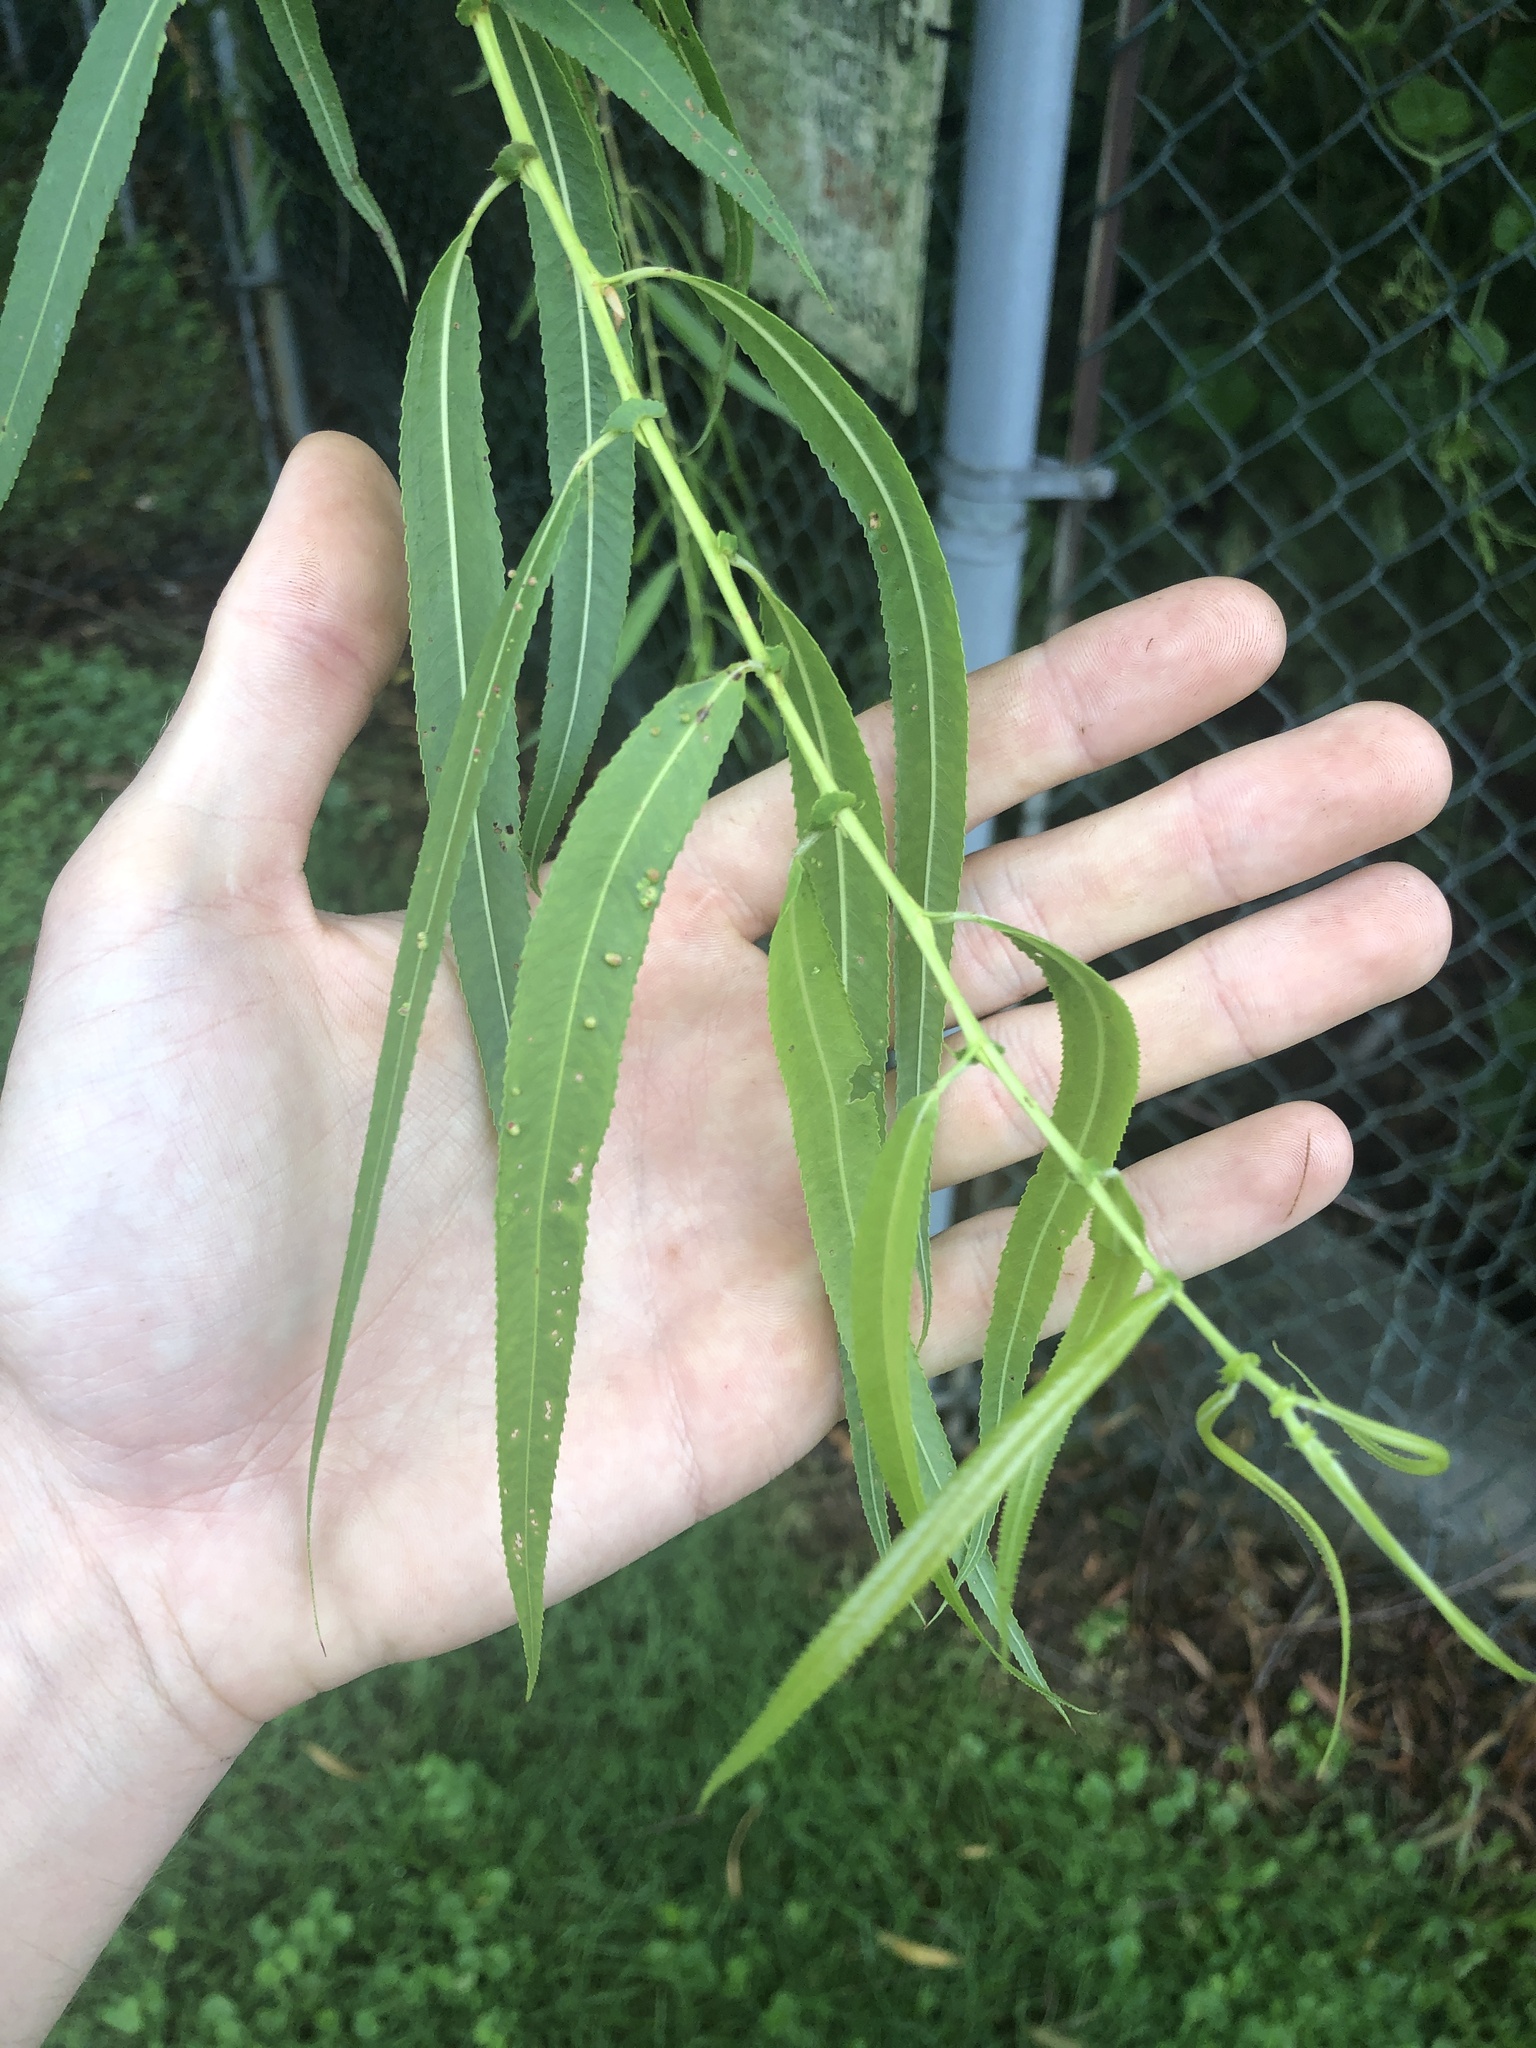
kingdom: Plantae
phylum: Tracheophyta
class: Magnoliopsida
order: Malpighiales
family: Salicaceae
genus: Salix
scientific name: Salix nigra
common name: Black willow
